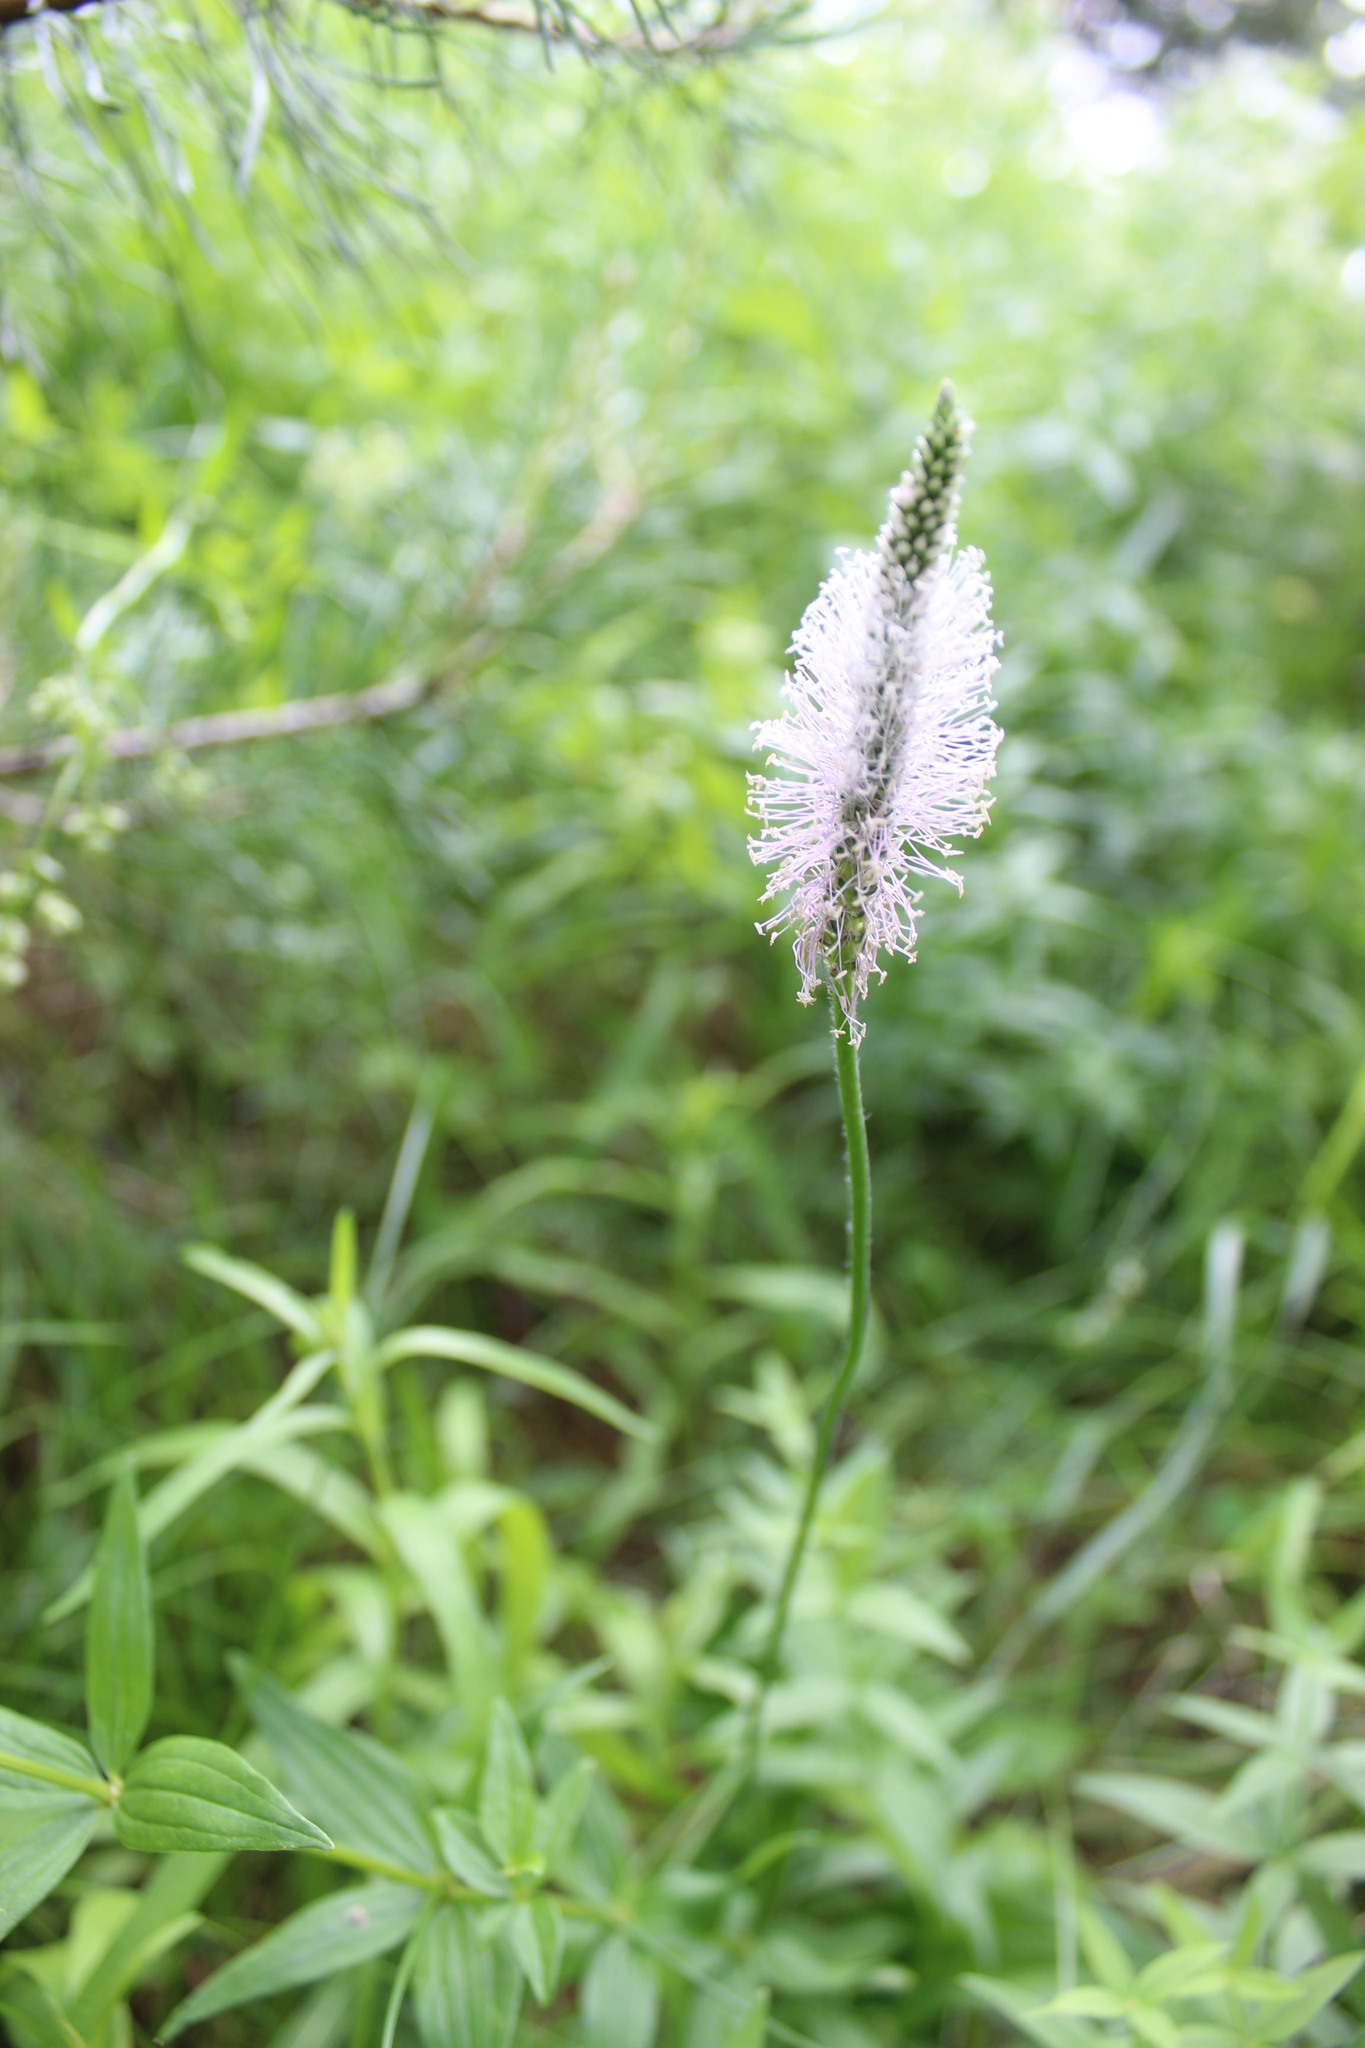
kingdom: Plantae
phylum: Tracheophyta
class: Magnoliopsida
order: Lamiales
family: Plantaginaceae
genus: Plantago
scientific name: Plantago media
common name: Hoary plantain
